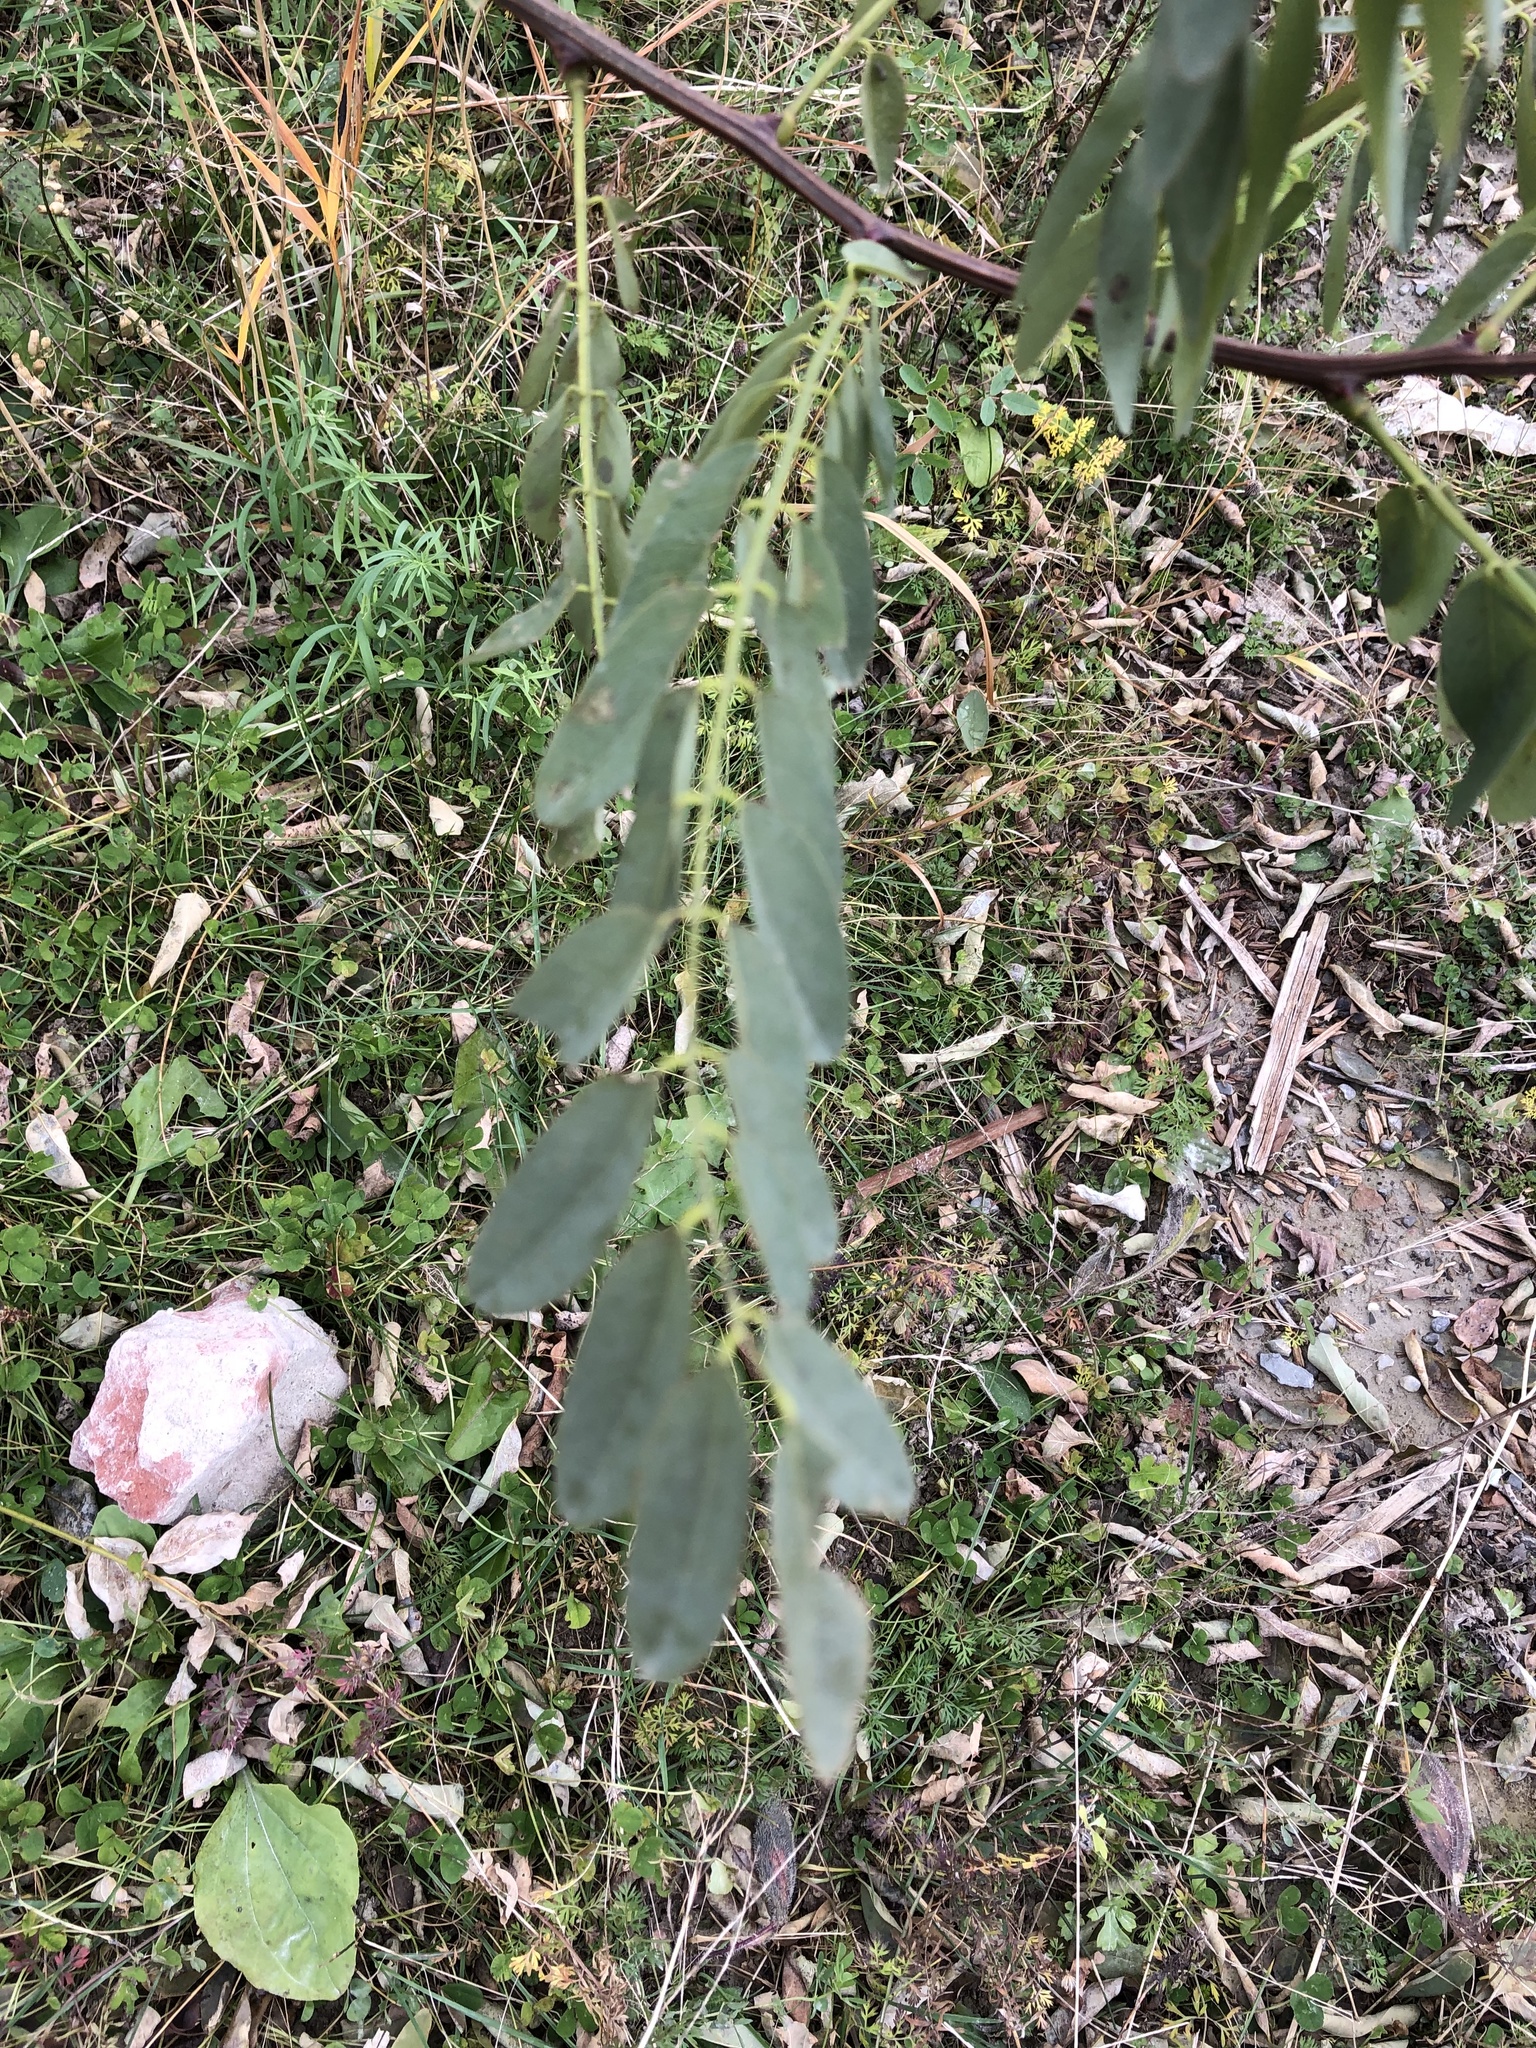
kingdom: Plantae
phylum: Tracheophyta
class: Magnoliopsida
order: Fabales
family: Fabaceae
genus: Robinia
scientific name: Robinia pseudoacacia
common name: Black locust
